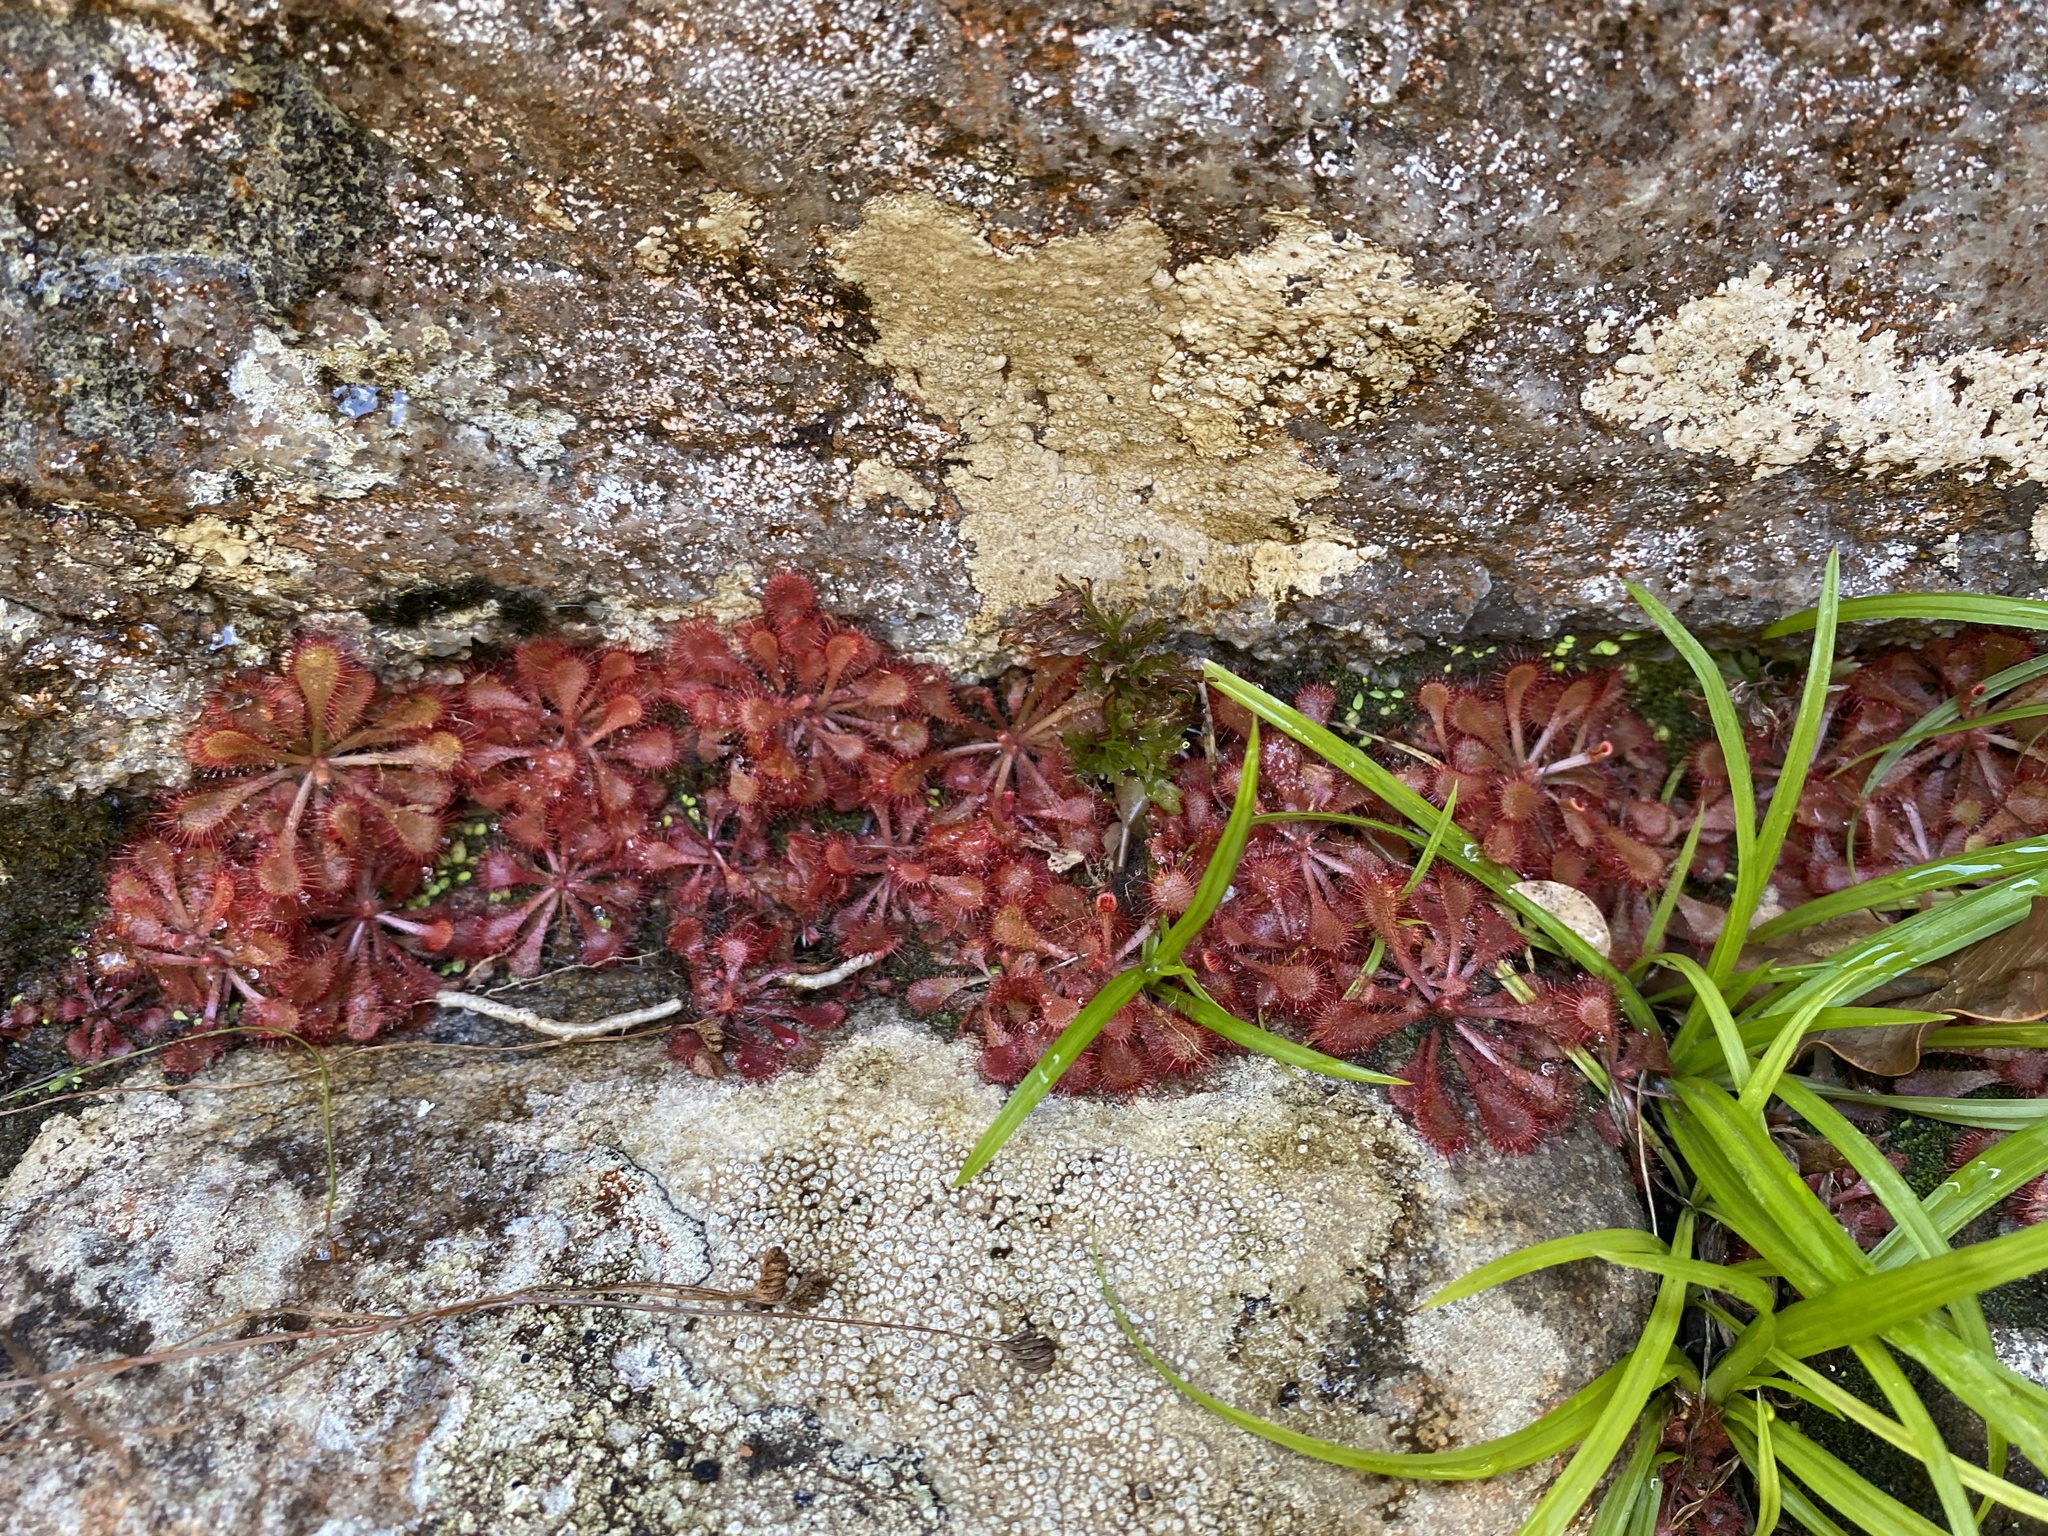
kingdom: Plantae
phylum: Tracheophyta
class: Magnoliopsida
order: Caryophyllales
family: Droseraceae
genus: Drosera
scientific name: Drosera natalensis
